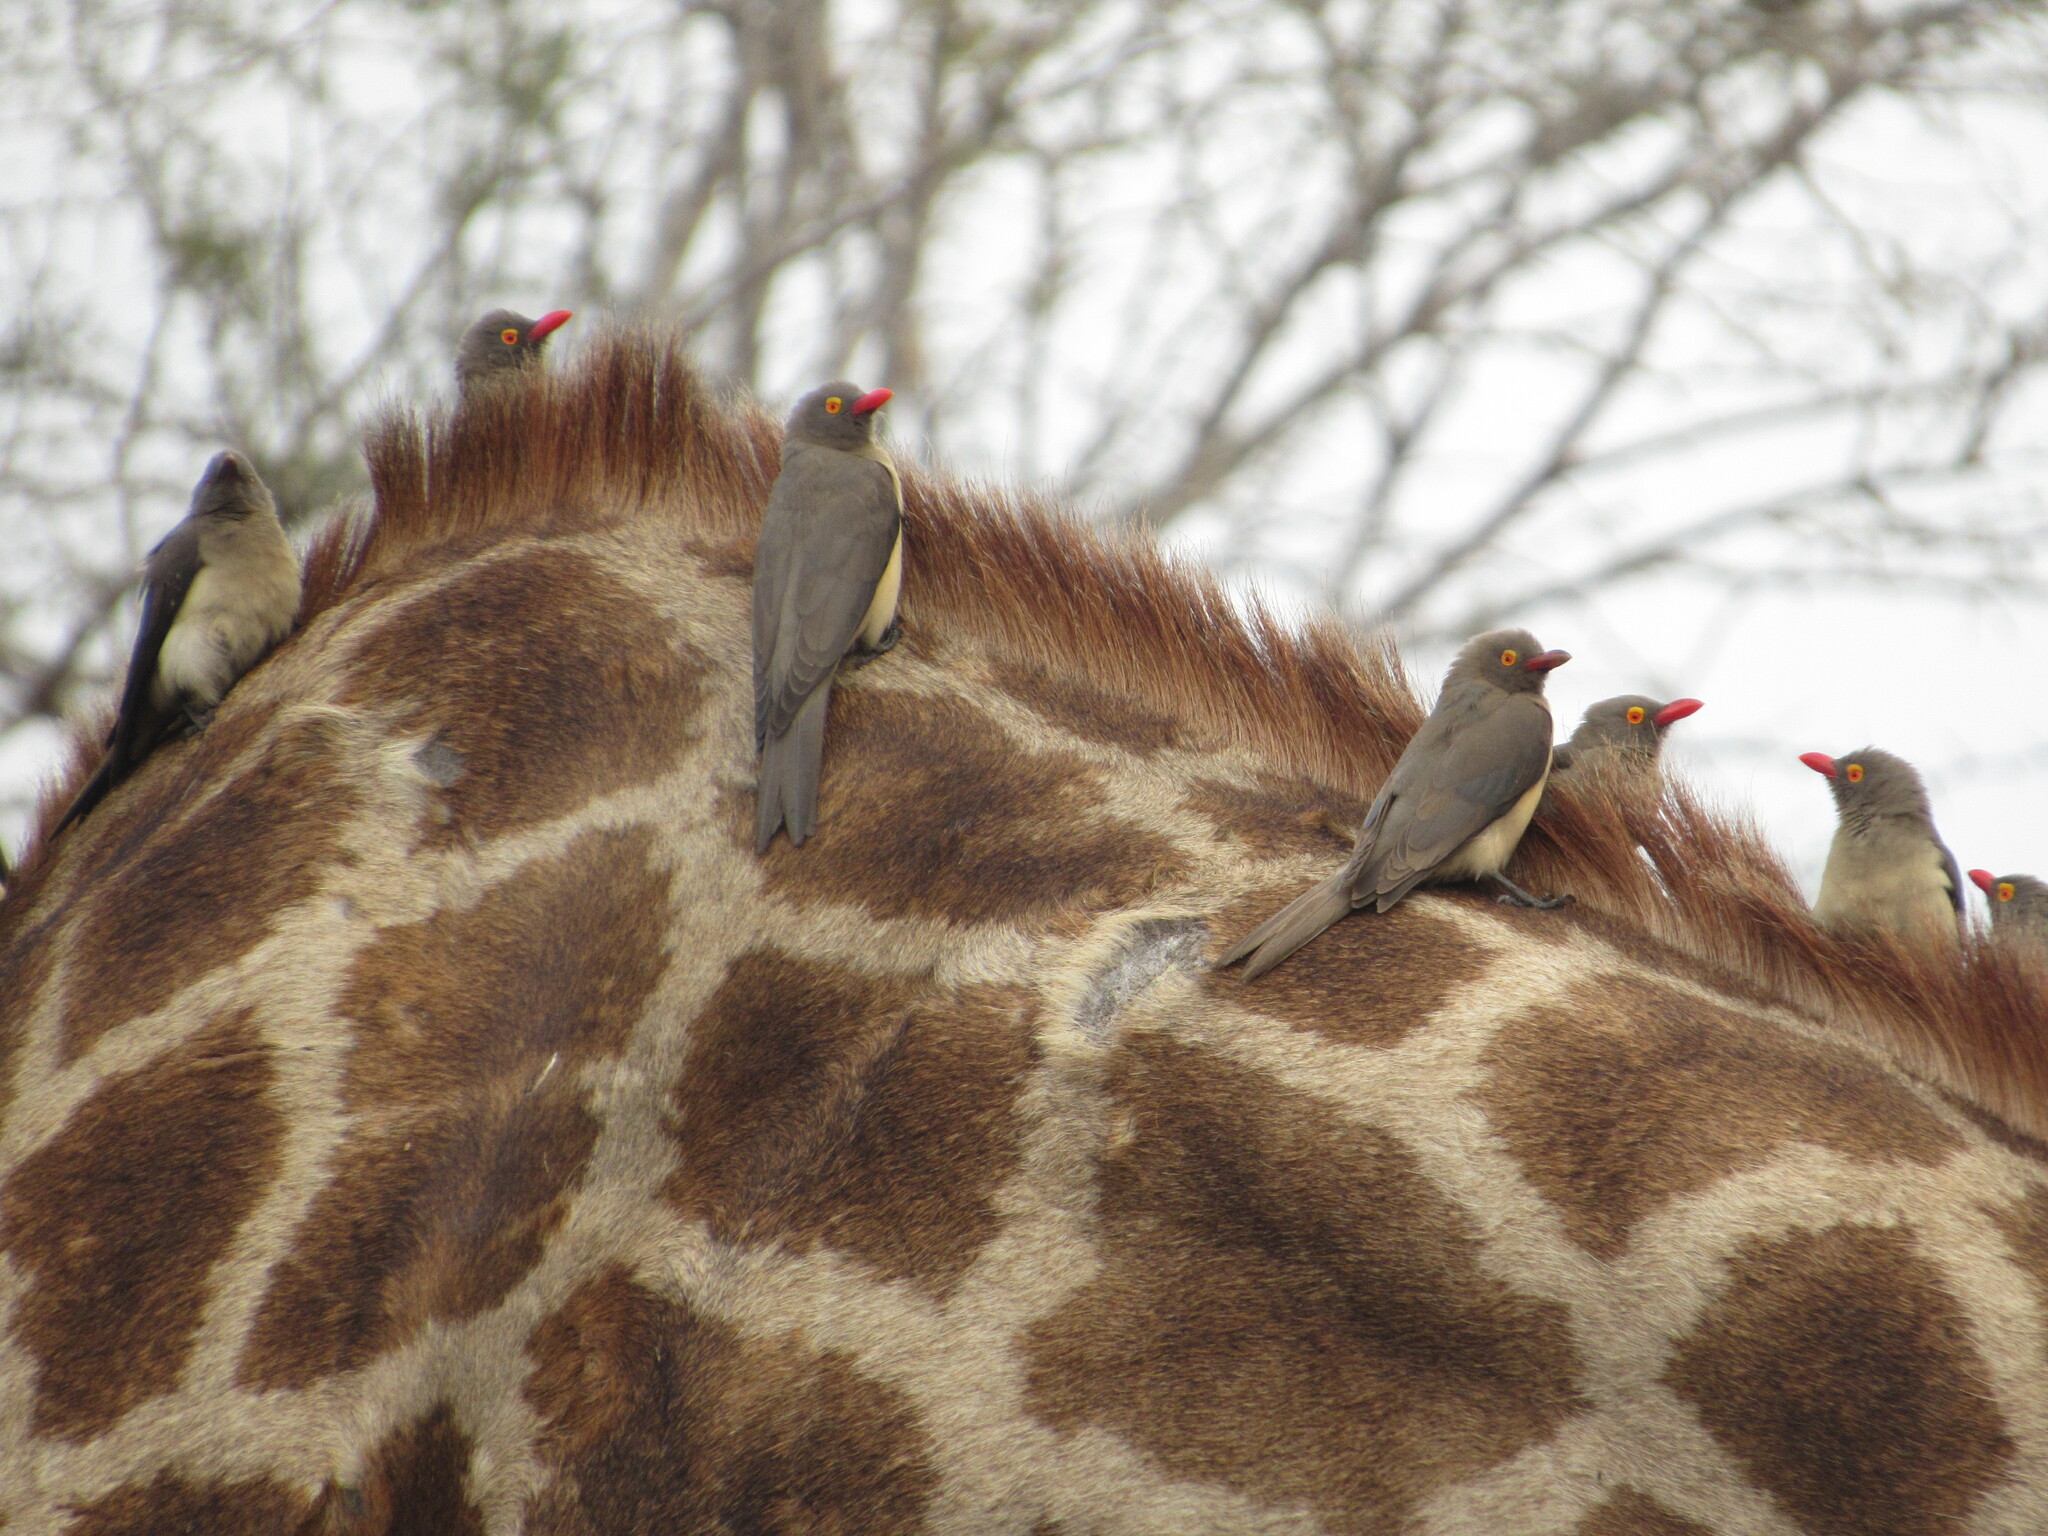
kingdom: Animalia
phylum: Chordata
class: Aves
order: Passeriformes
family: Buphagidae
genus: Buphagus
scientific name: Buphagus erythrorhynchus
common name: Red-billed oxpecker
